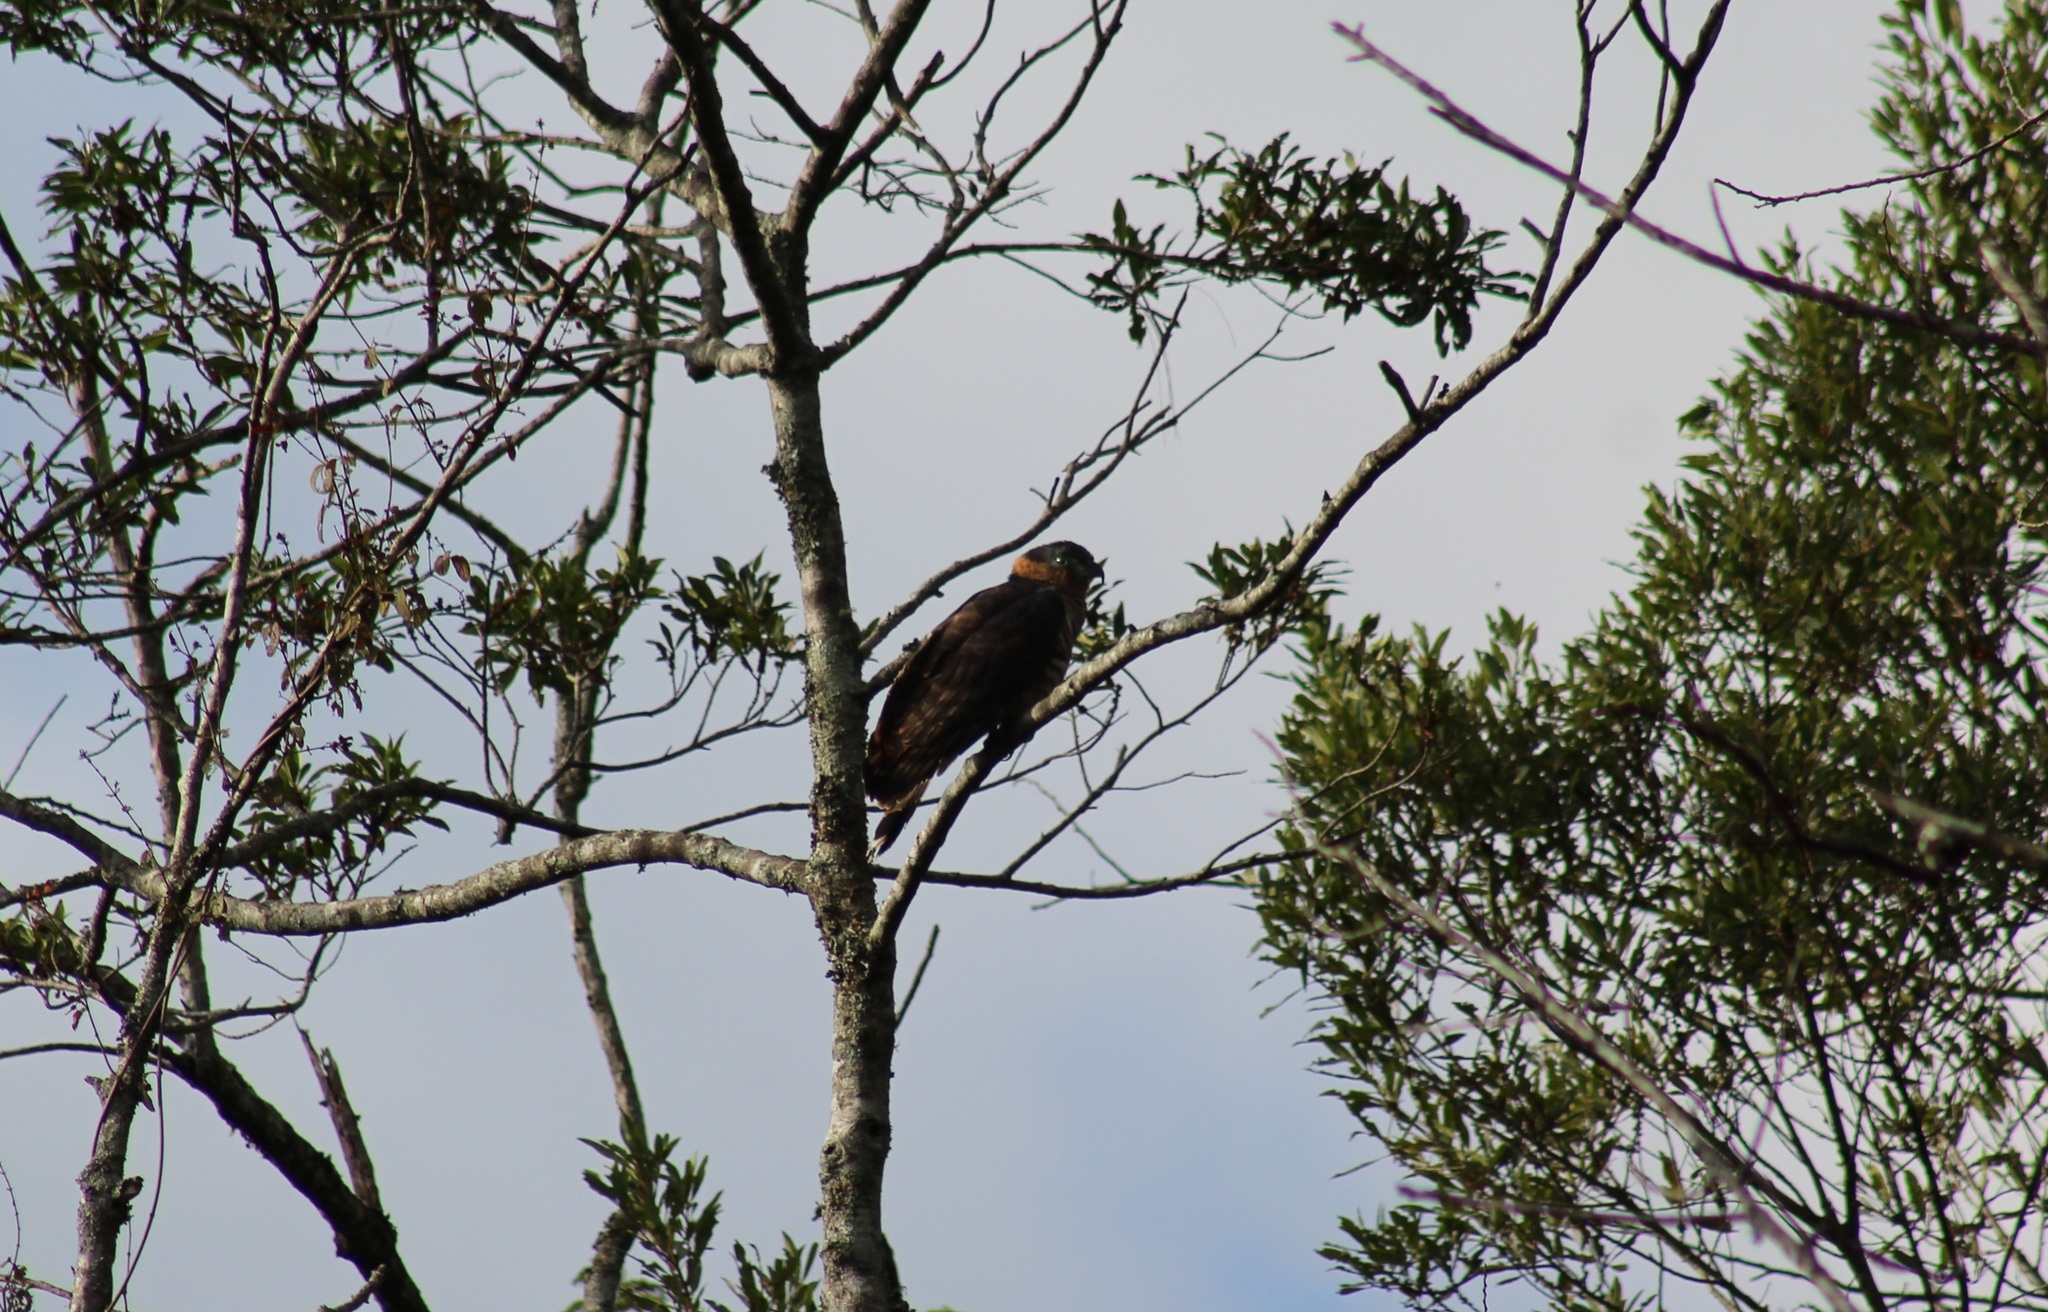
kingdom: Animalia
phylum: Chordata
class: Aves
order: Accipitriformes
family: Accipitridae
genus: Chondrohierax
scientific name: Chondrohierax uncinatus
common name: Hook-billed kite
